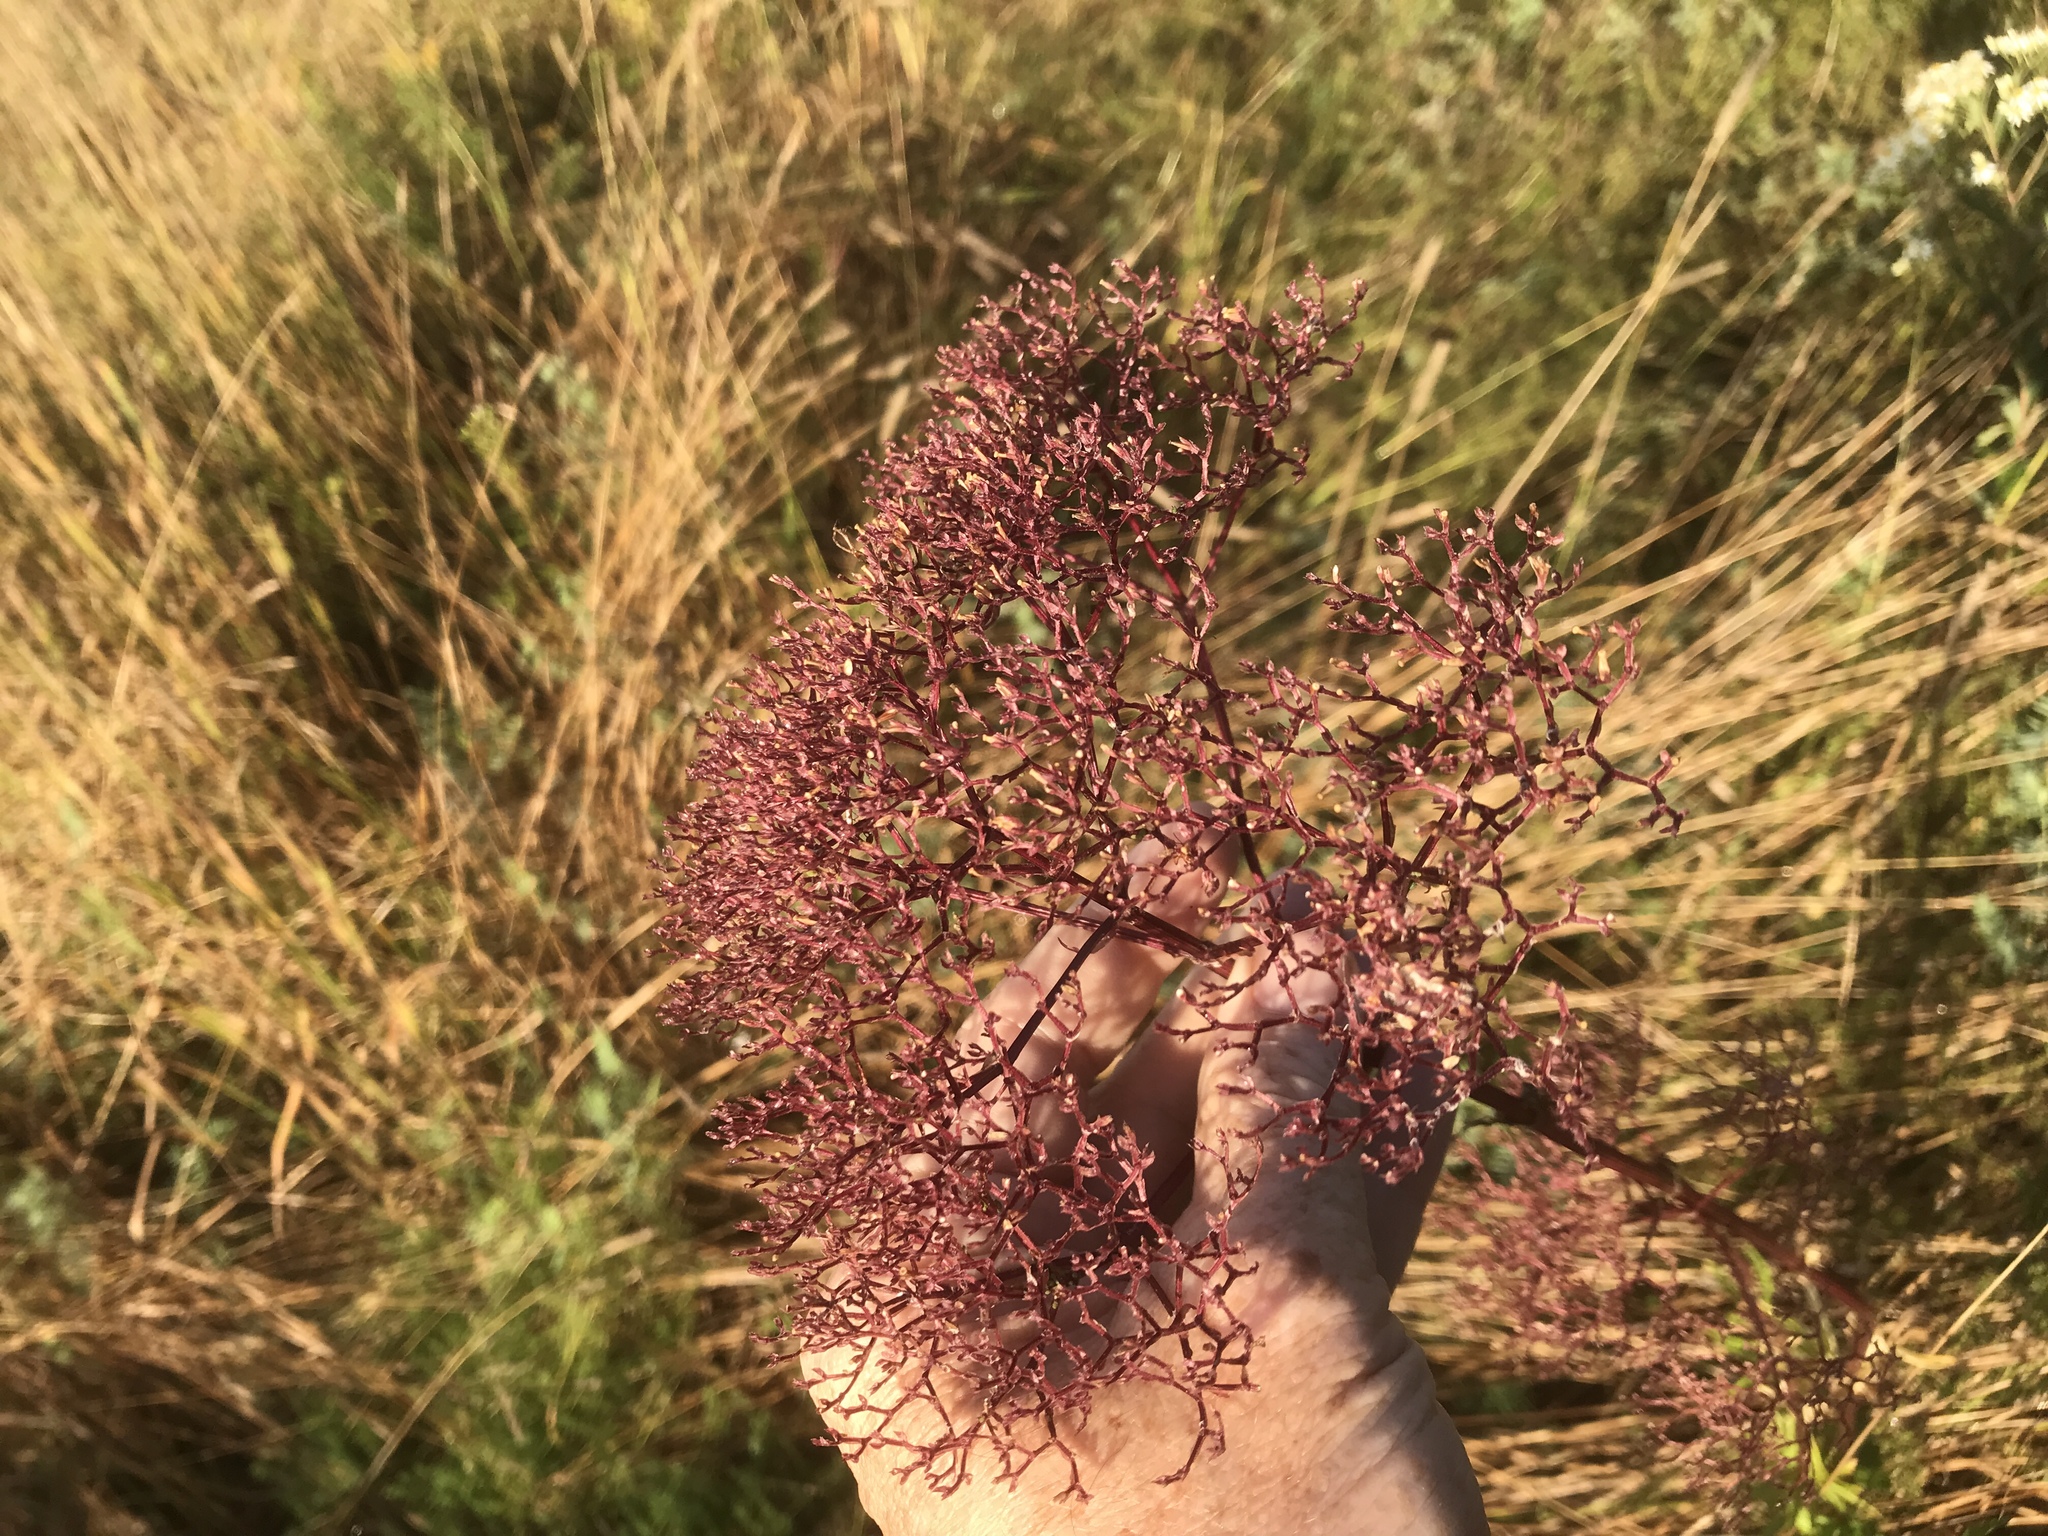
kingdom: Plantae
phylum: Tracheophyta
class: Magnoliopsida
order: Dipsacales
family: Caprifoliaceae
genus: Valeriana
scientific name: Valeriana officinalis
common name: Common valerian
